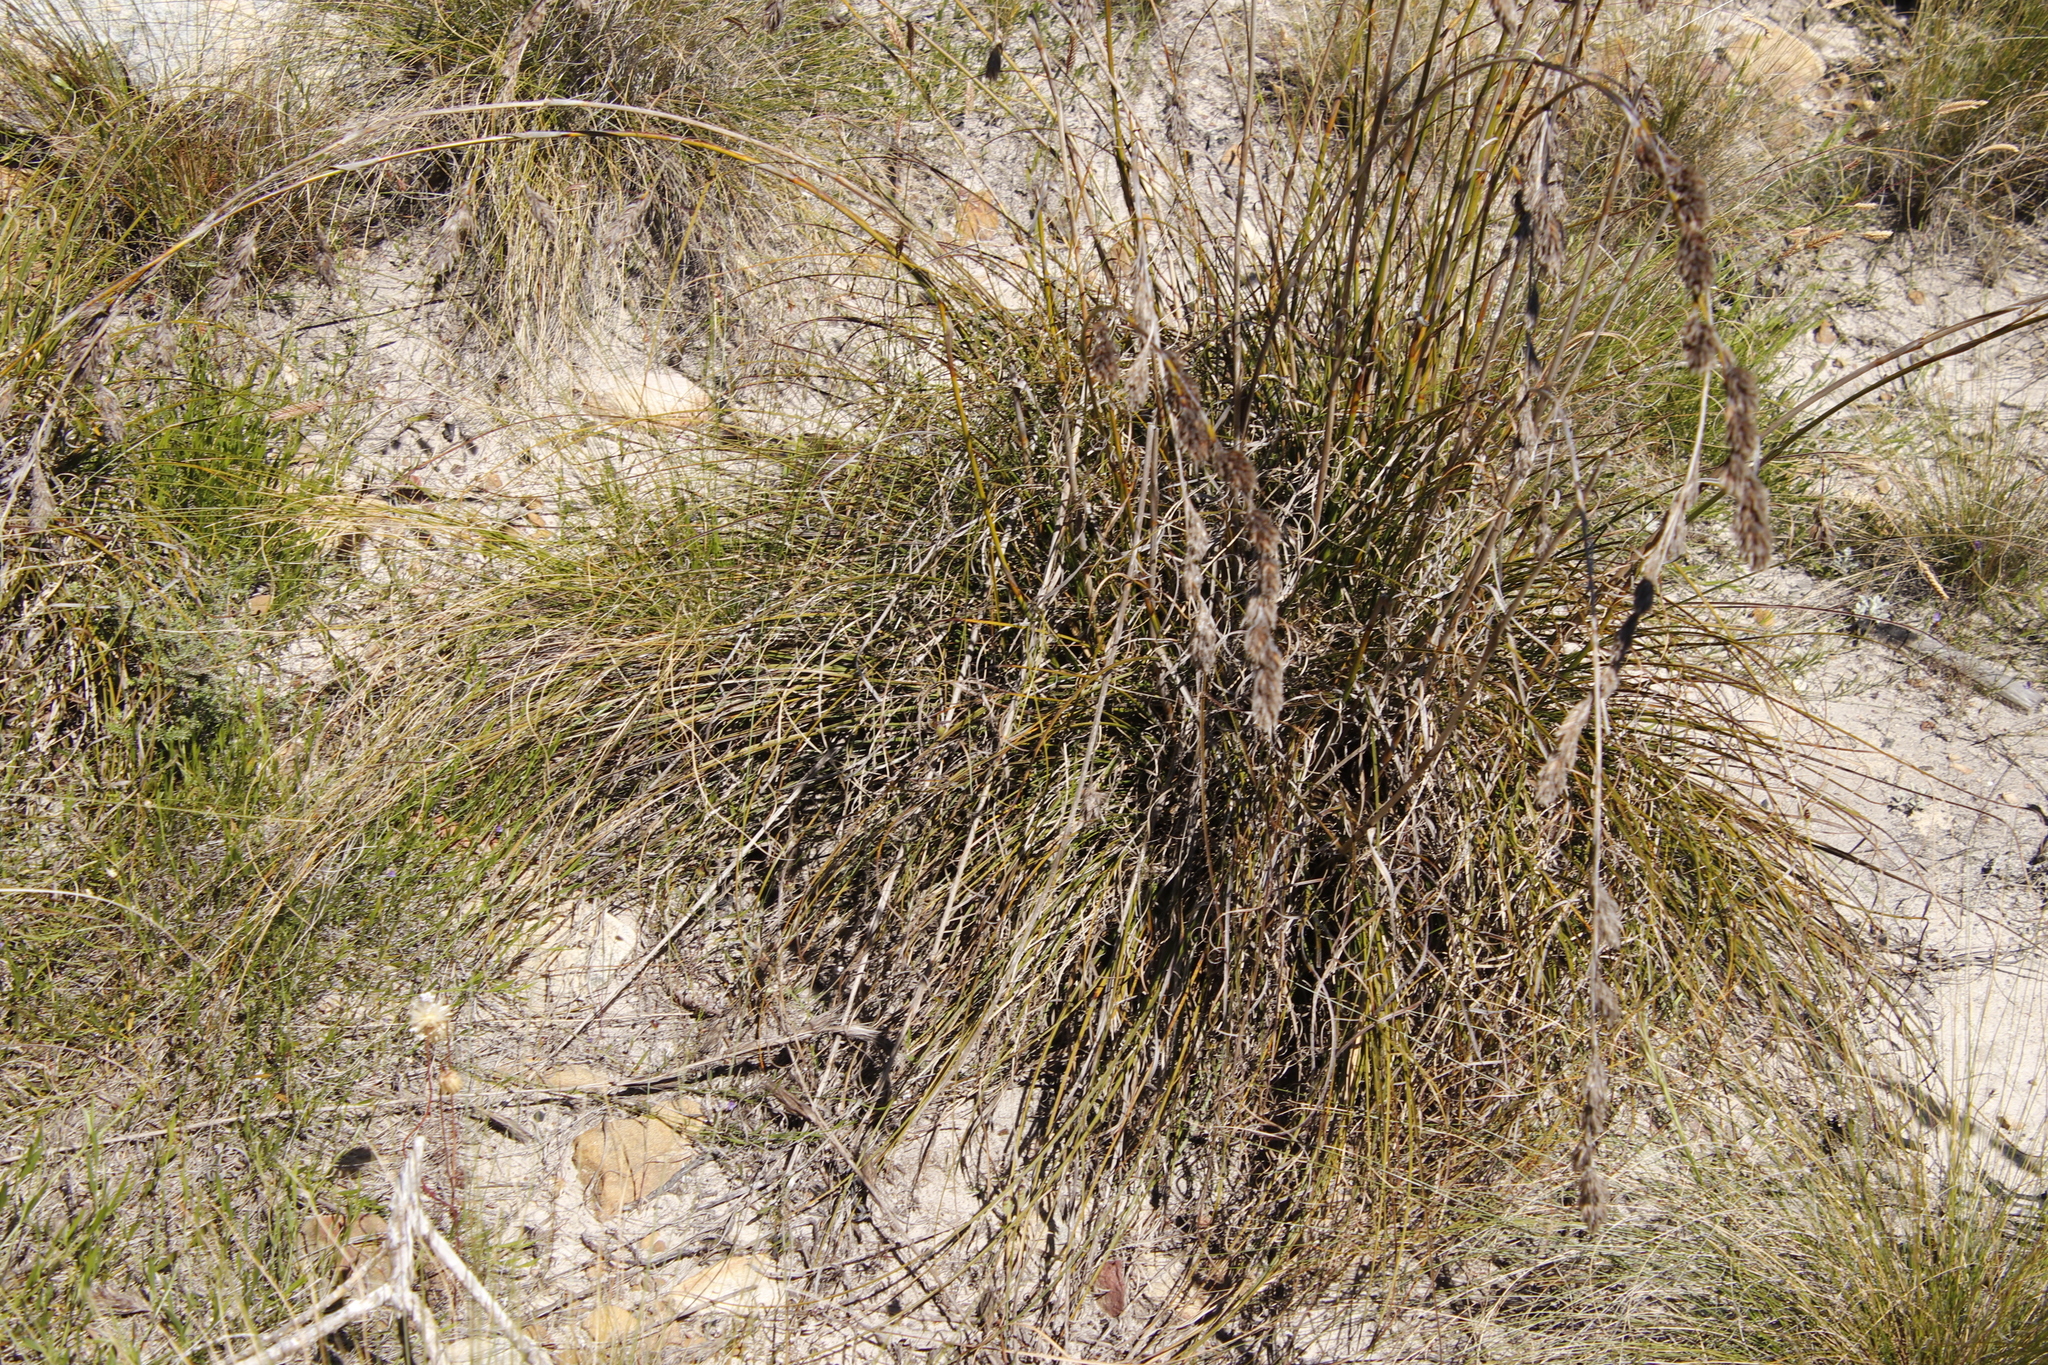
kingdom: Plantae
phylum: Tracheophyta
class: Liliopsida
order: Poales
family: Cyperaceae
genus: Tetraria
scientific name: Tetraria bromoides
